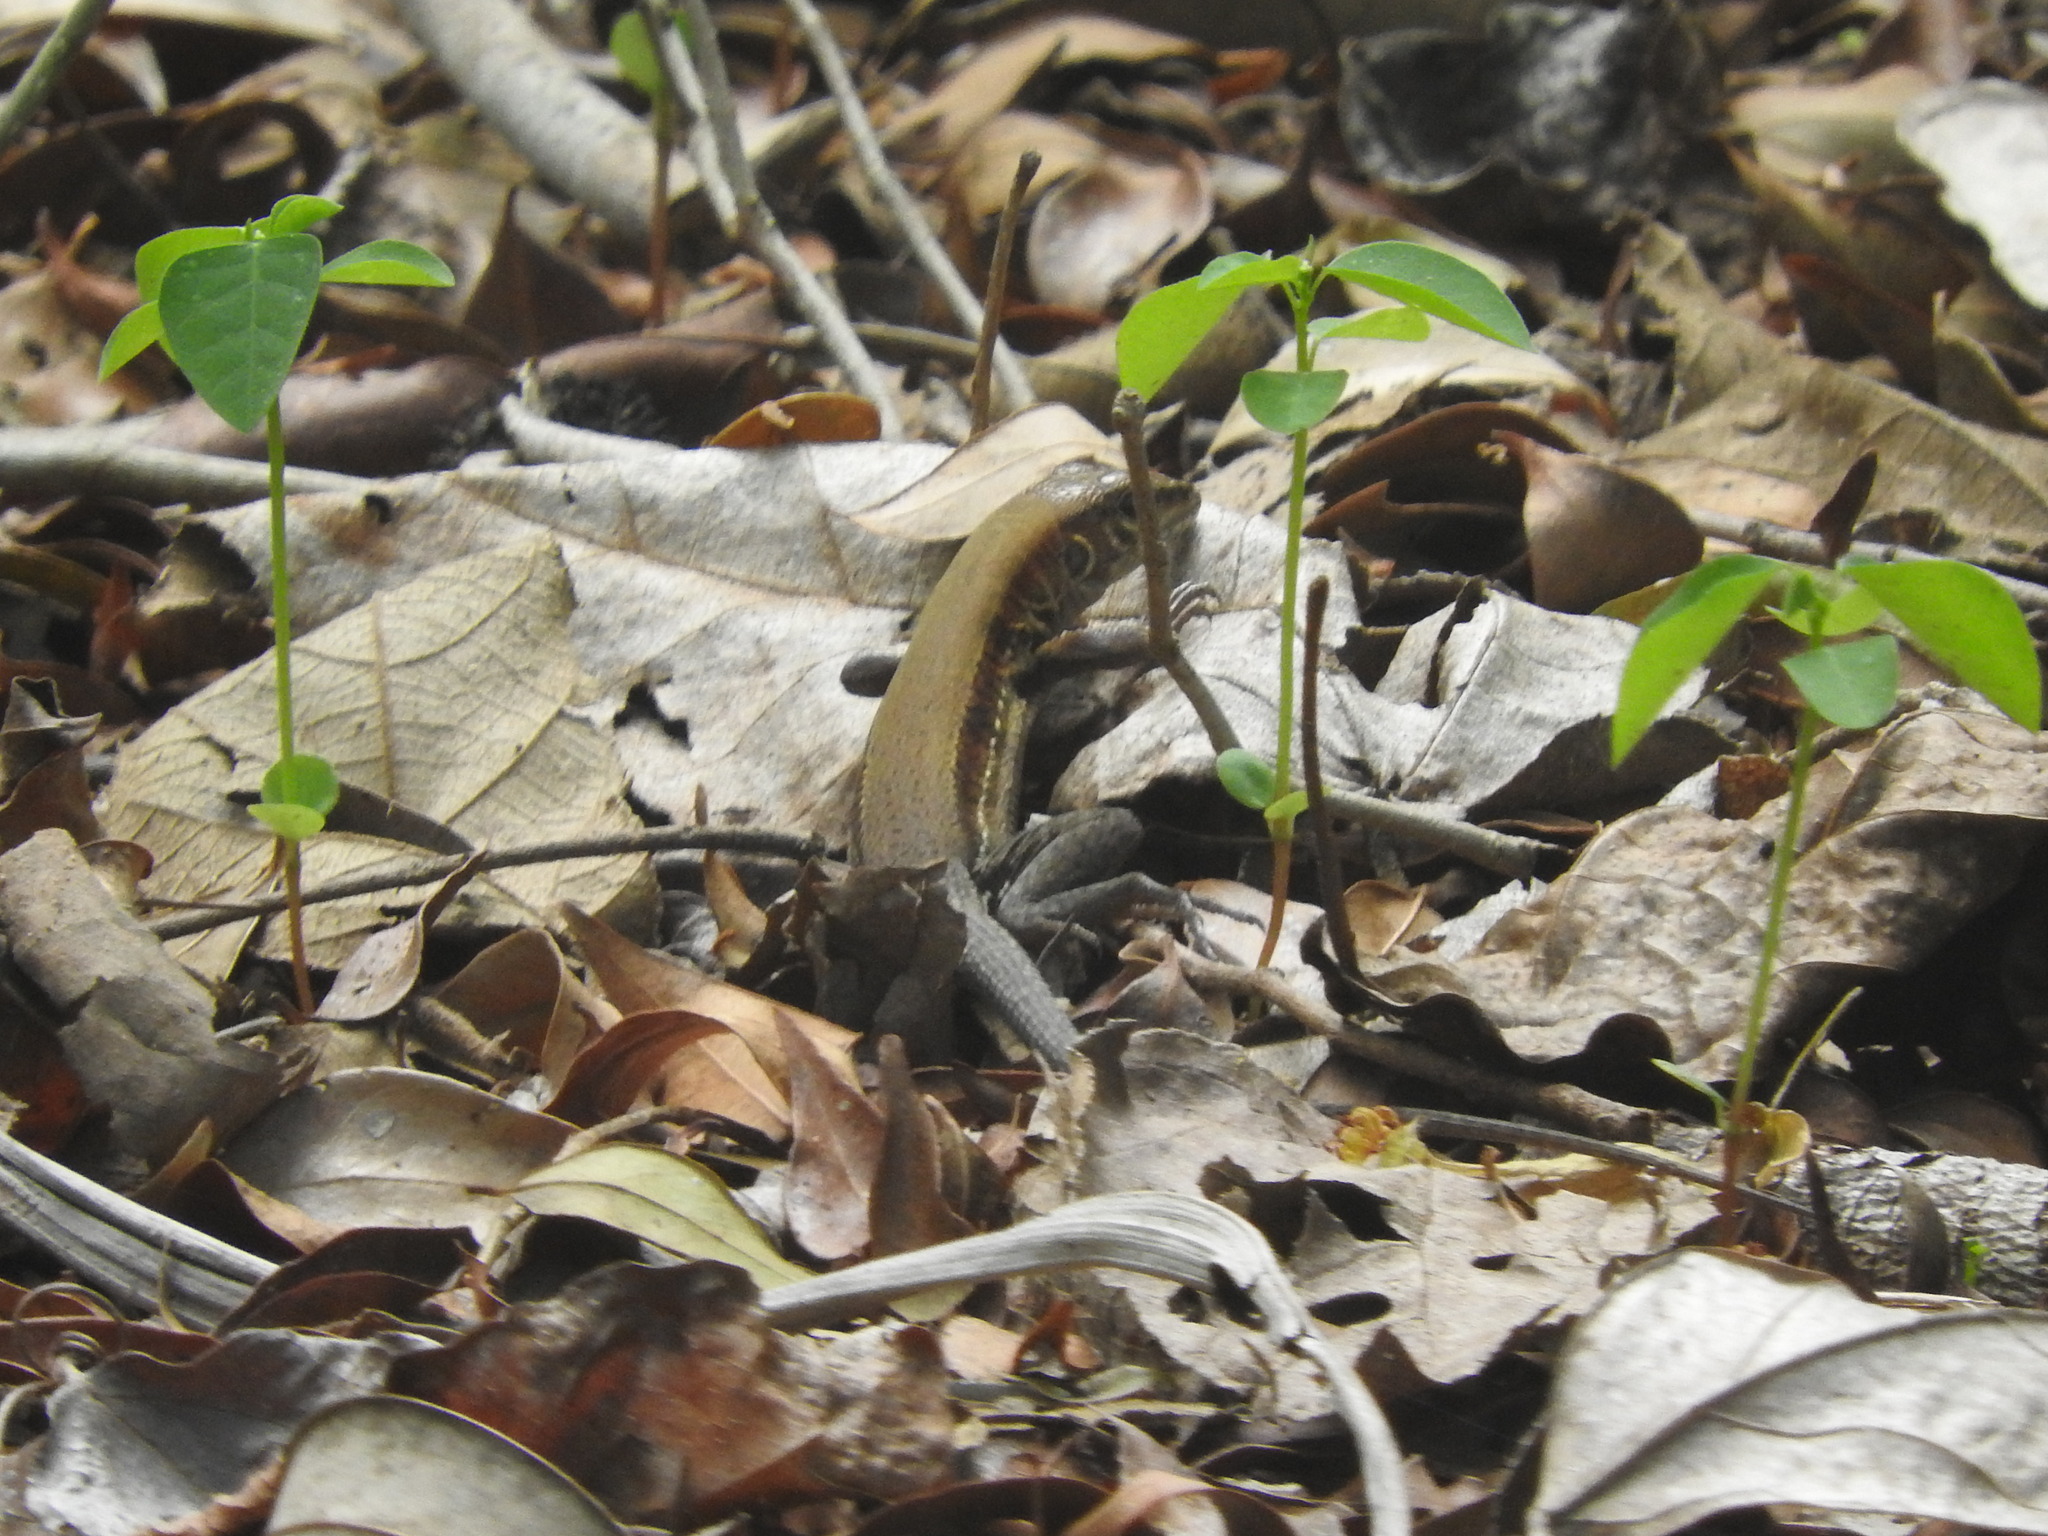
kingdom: Animalia
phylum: Chordata
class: Squamata
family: Teiidae
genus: Holcosus
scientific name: Holcosus gaigeae
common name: Rainbow ameiva
